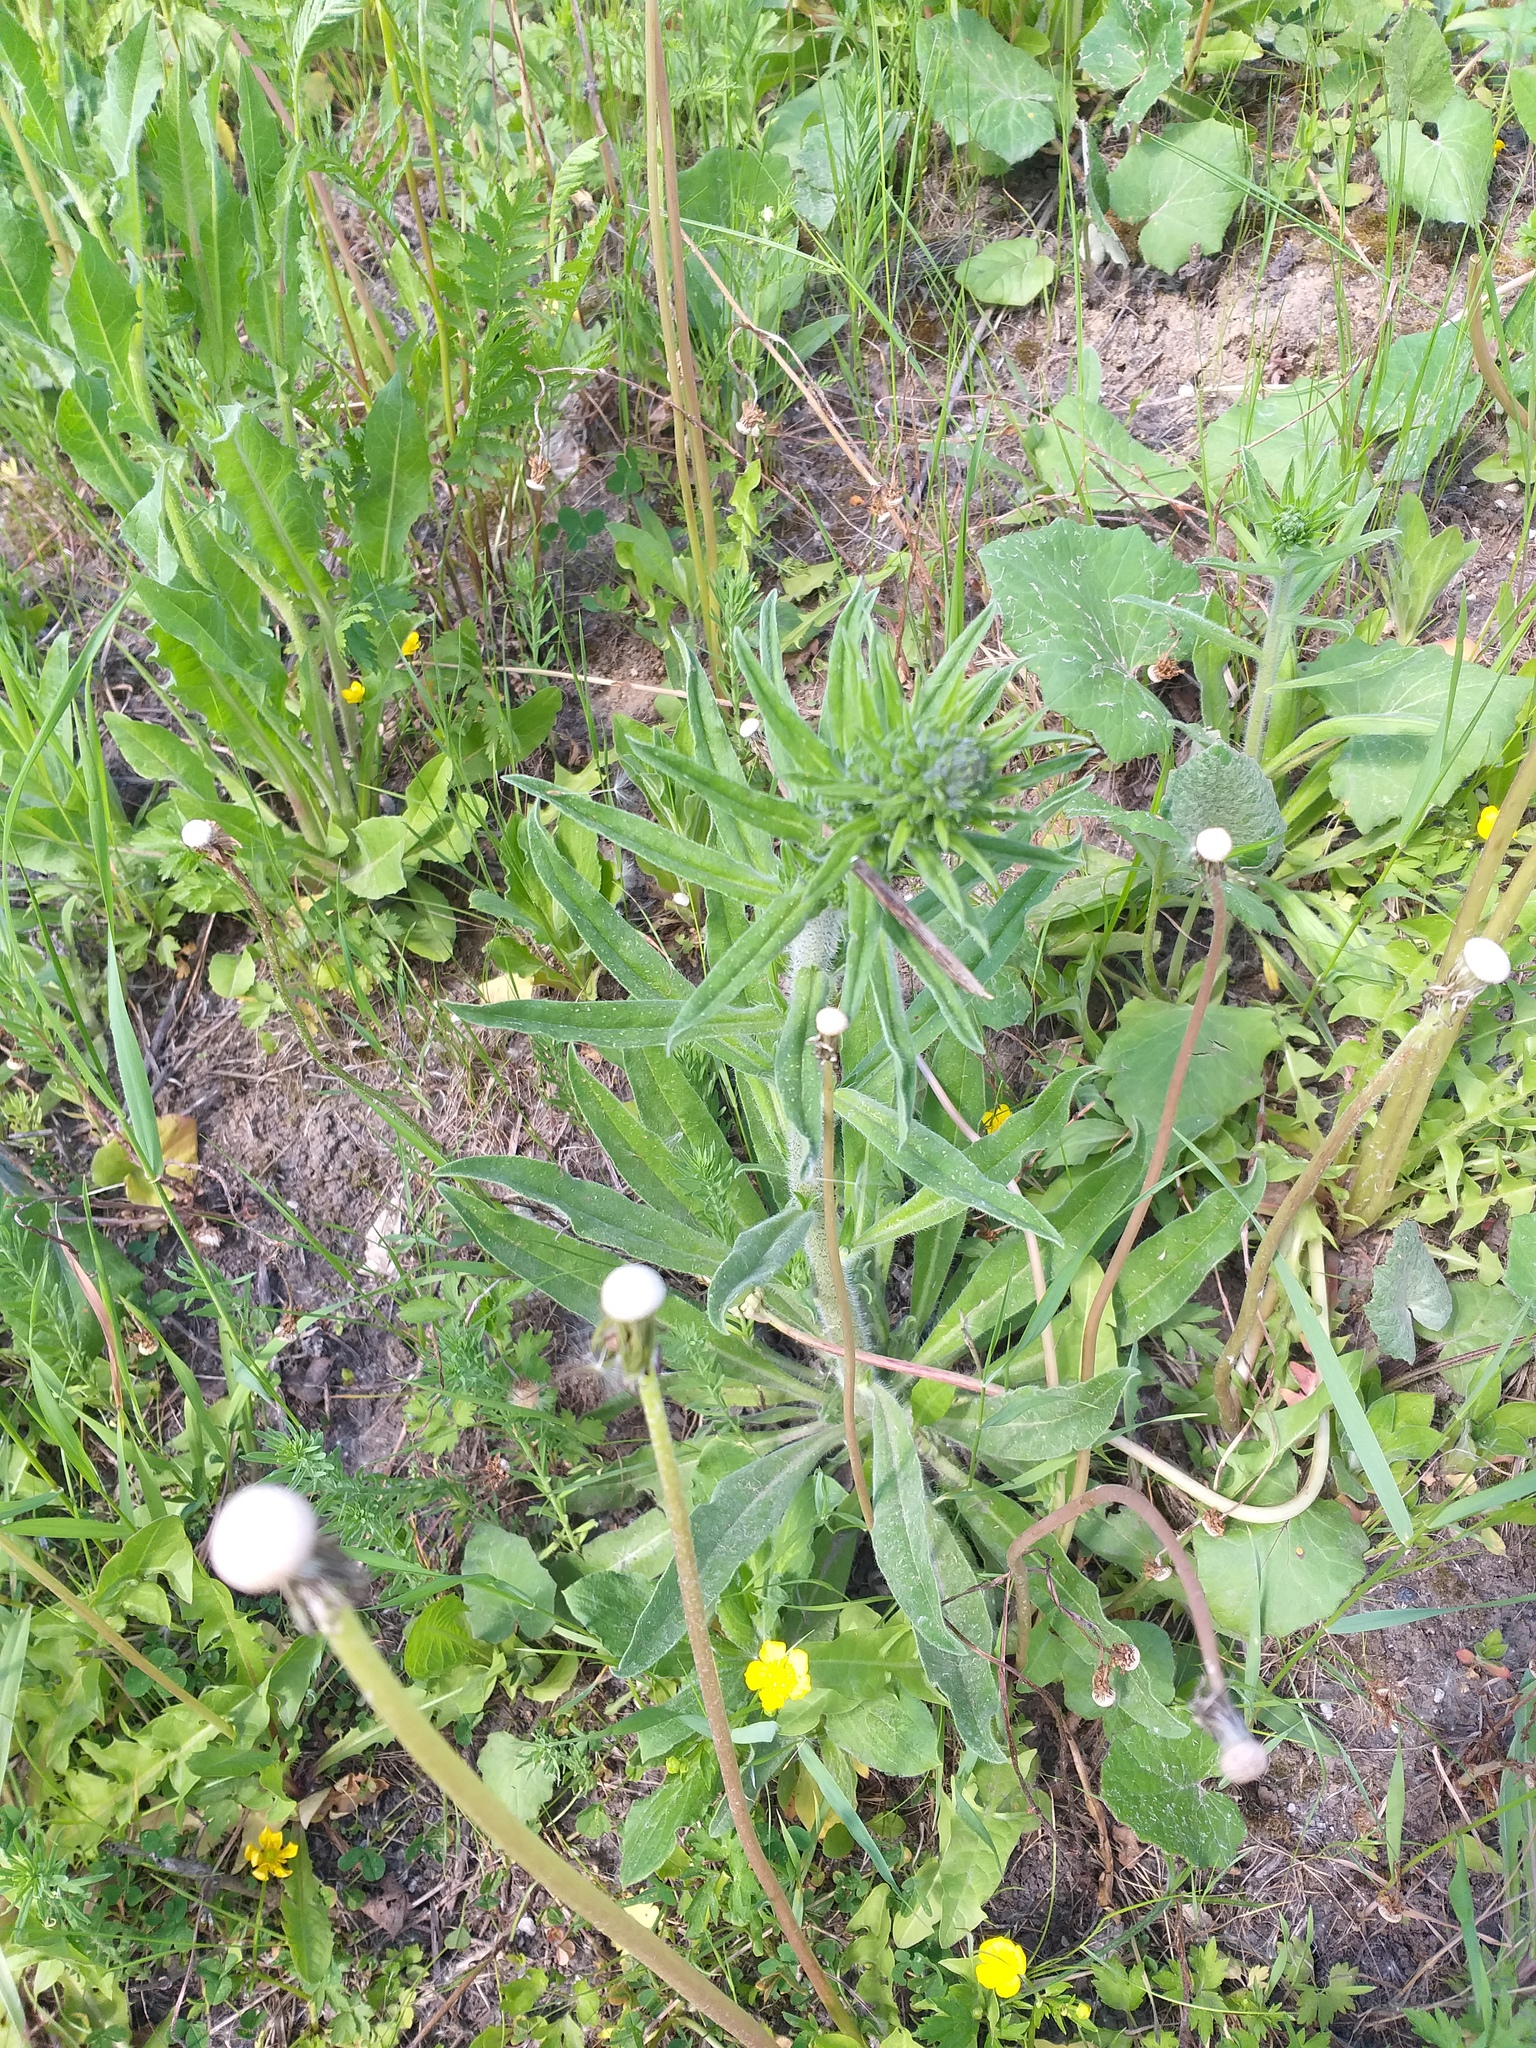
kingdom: Plantae
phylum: Tracheophyta
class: Magnoliopsida
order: Boraginales
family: Boraginaceae
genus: Echium
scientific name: Echium vulgare
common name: Common viper's bugloss
